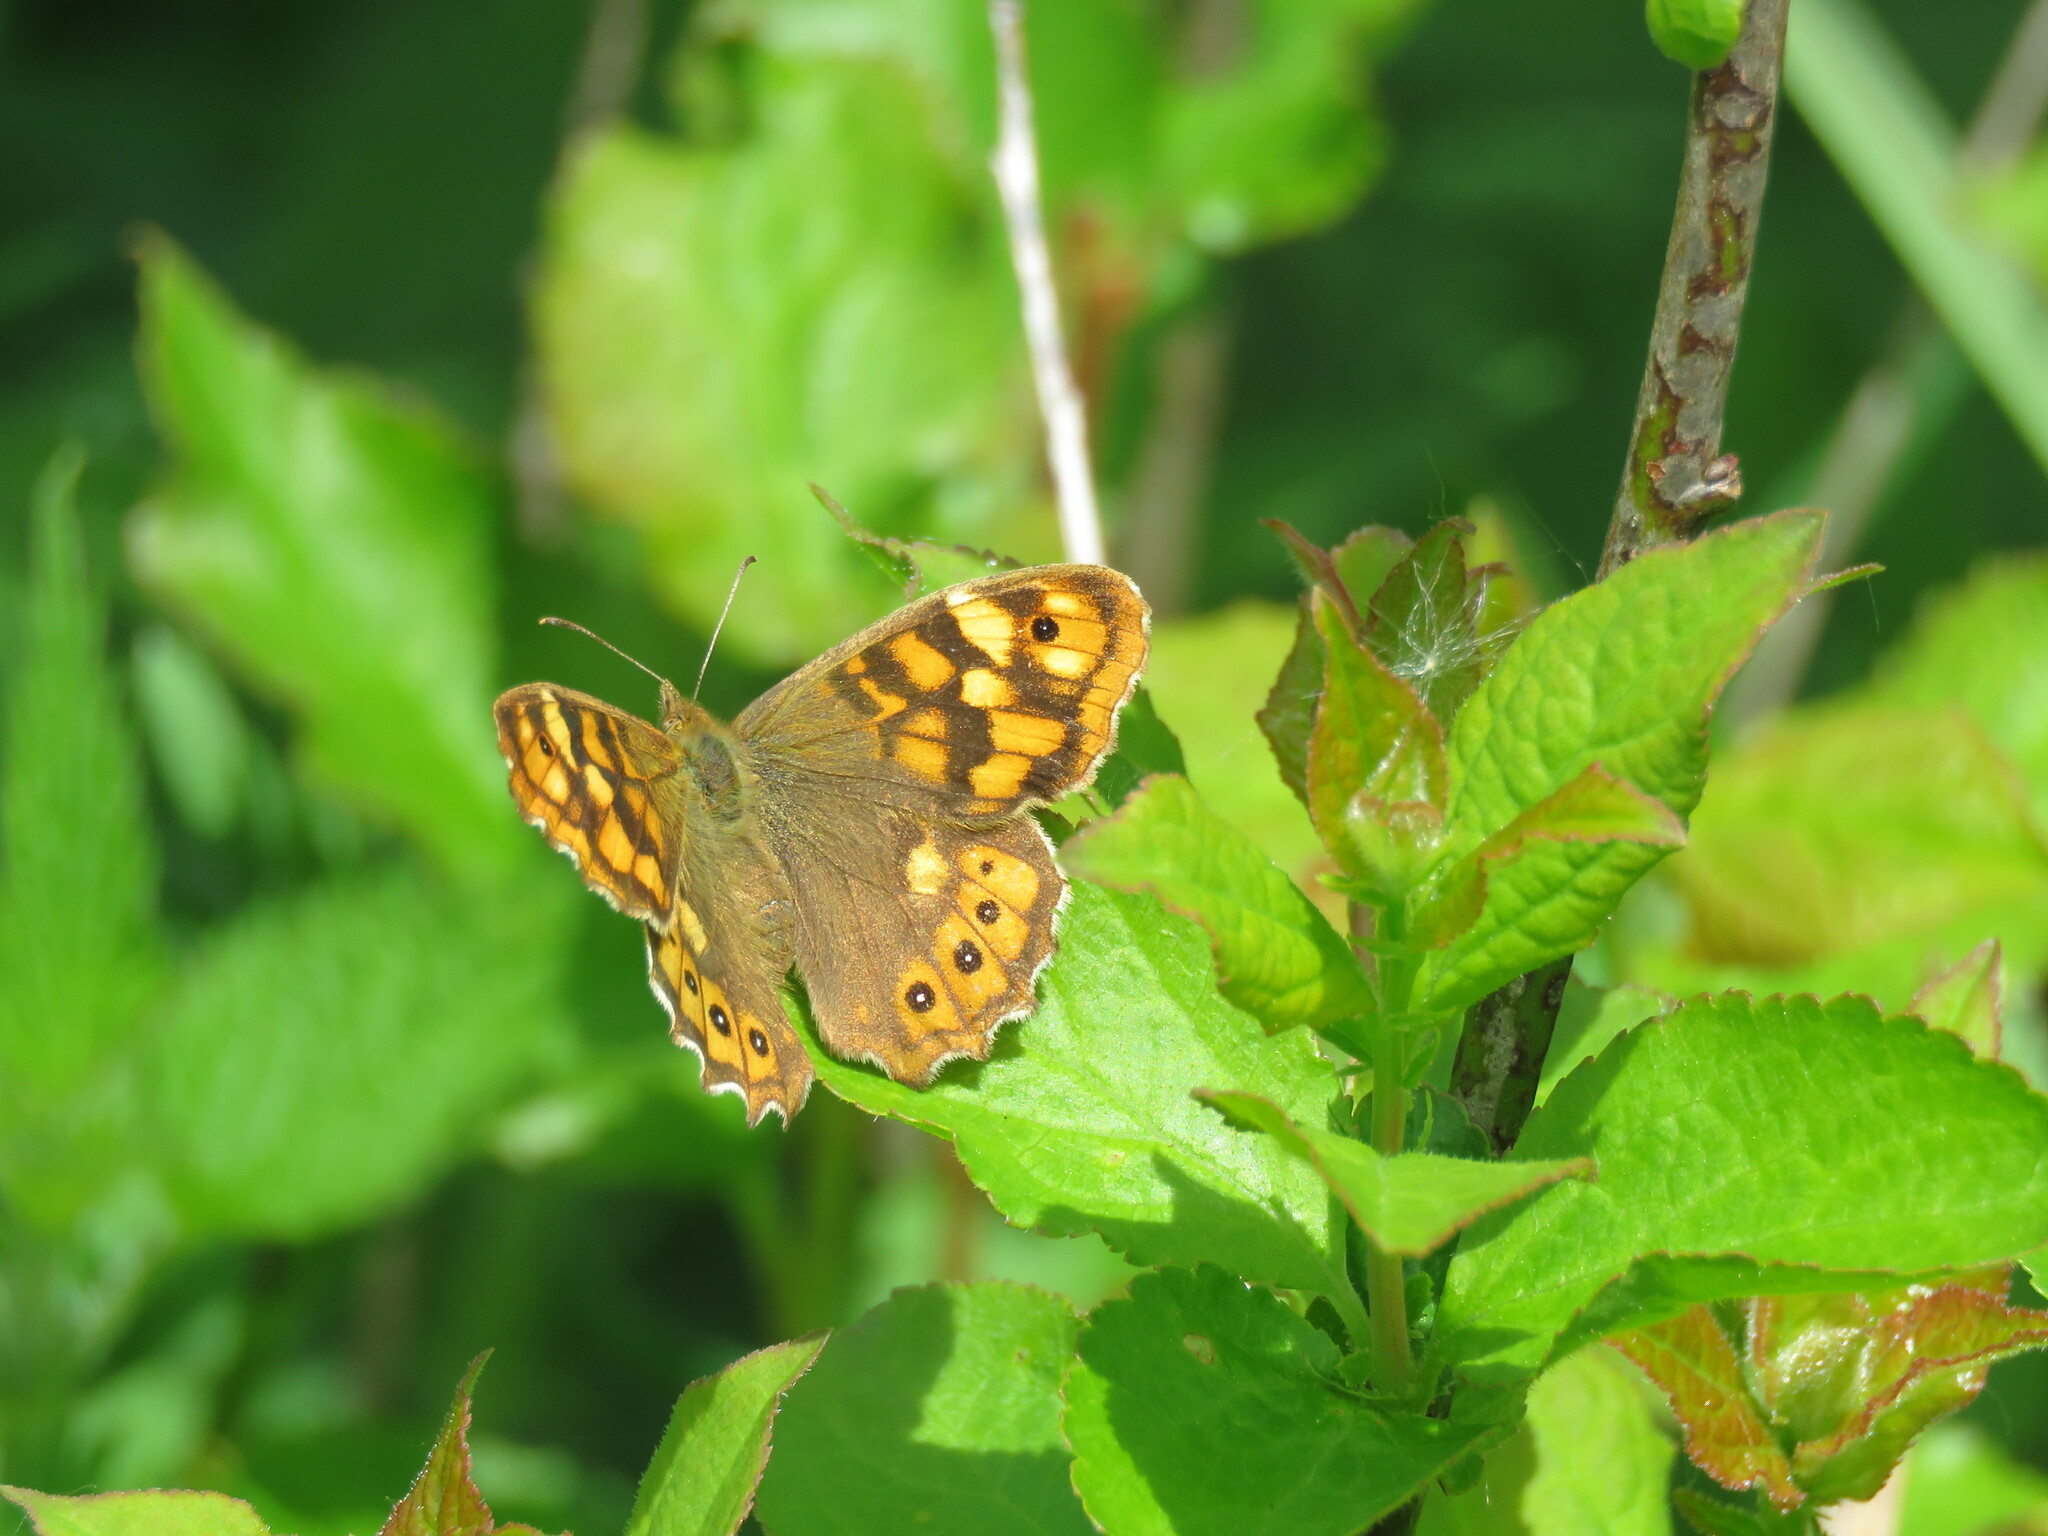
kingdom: Animalia
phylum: Arthropoda
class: Insecta
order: Lepidoptera
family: Nymphalidae
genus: Pararge
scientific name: Pararge aegeria
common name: Speckled wood
